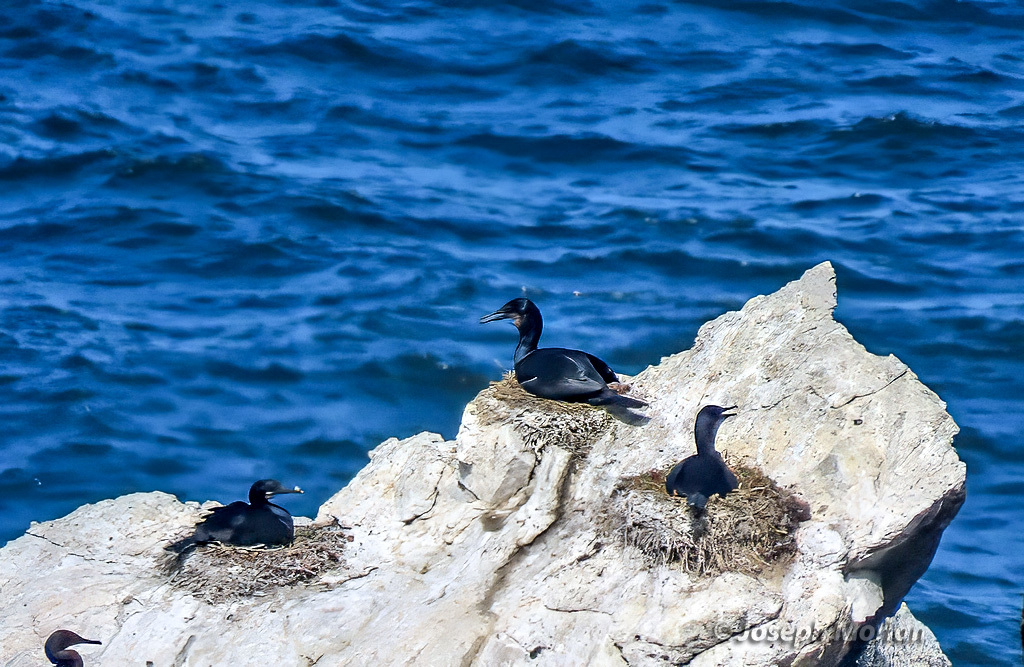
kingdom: Animalia
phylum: Chordata
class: Aves
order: Suliformes
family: Phalacrocoracidae
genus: Urile
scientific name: Urile penicillatus
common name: Brandt's cormorant
